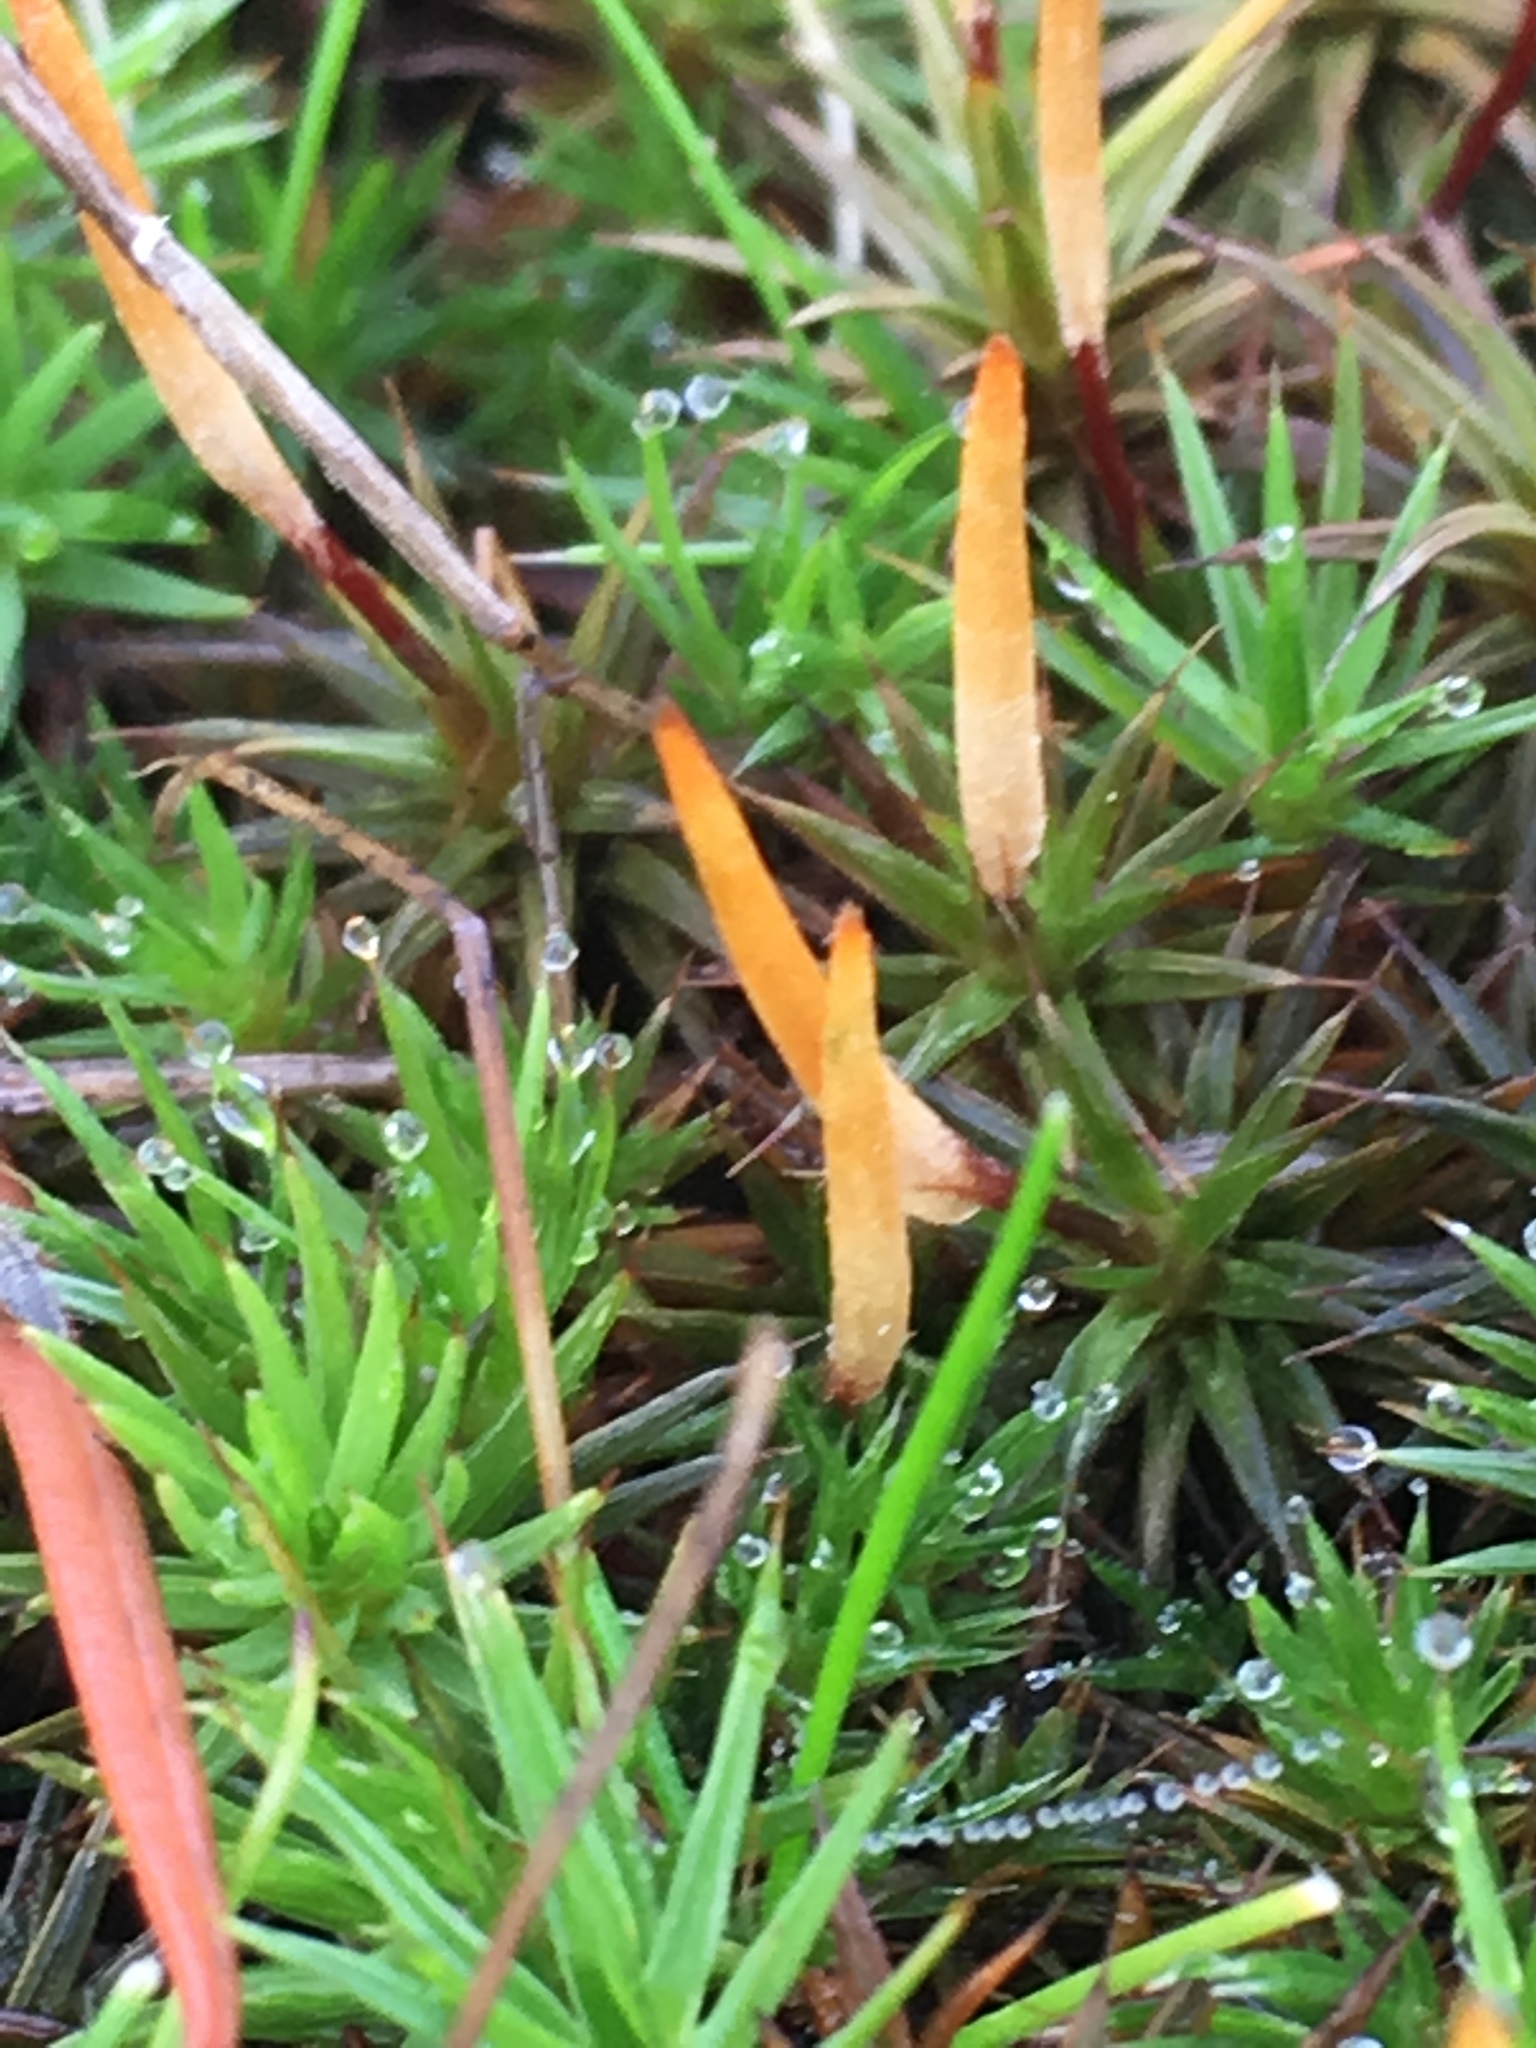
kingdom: Plantae
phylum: Bryophyta
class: Polytrichopsida
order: Polytrichales
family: Polytrichaceae
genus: Polytrichum
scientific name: Polytrichum juniperinum
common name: Juniper haircap moss
